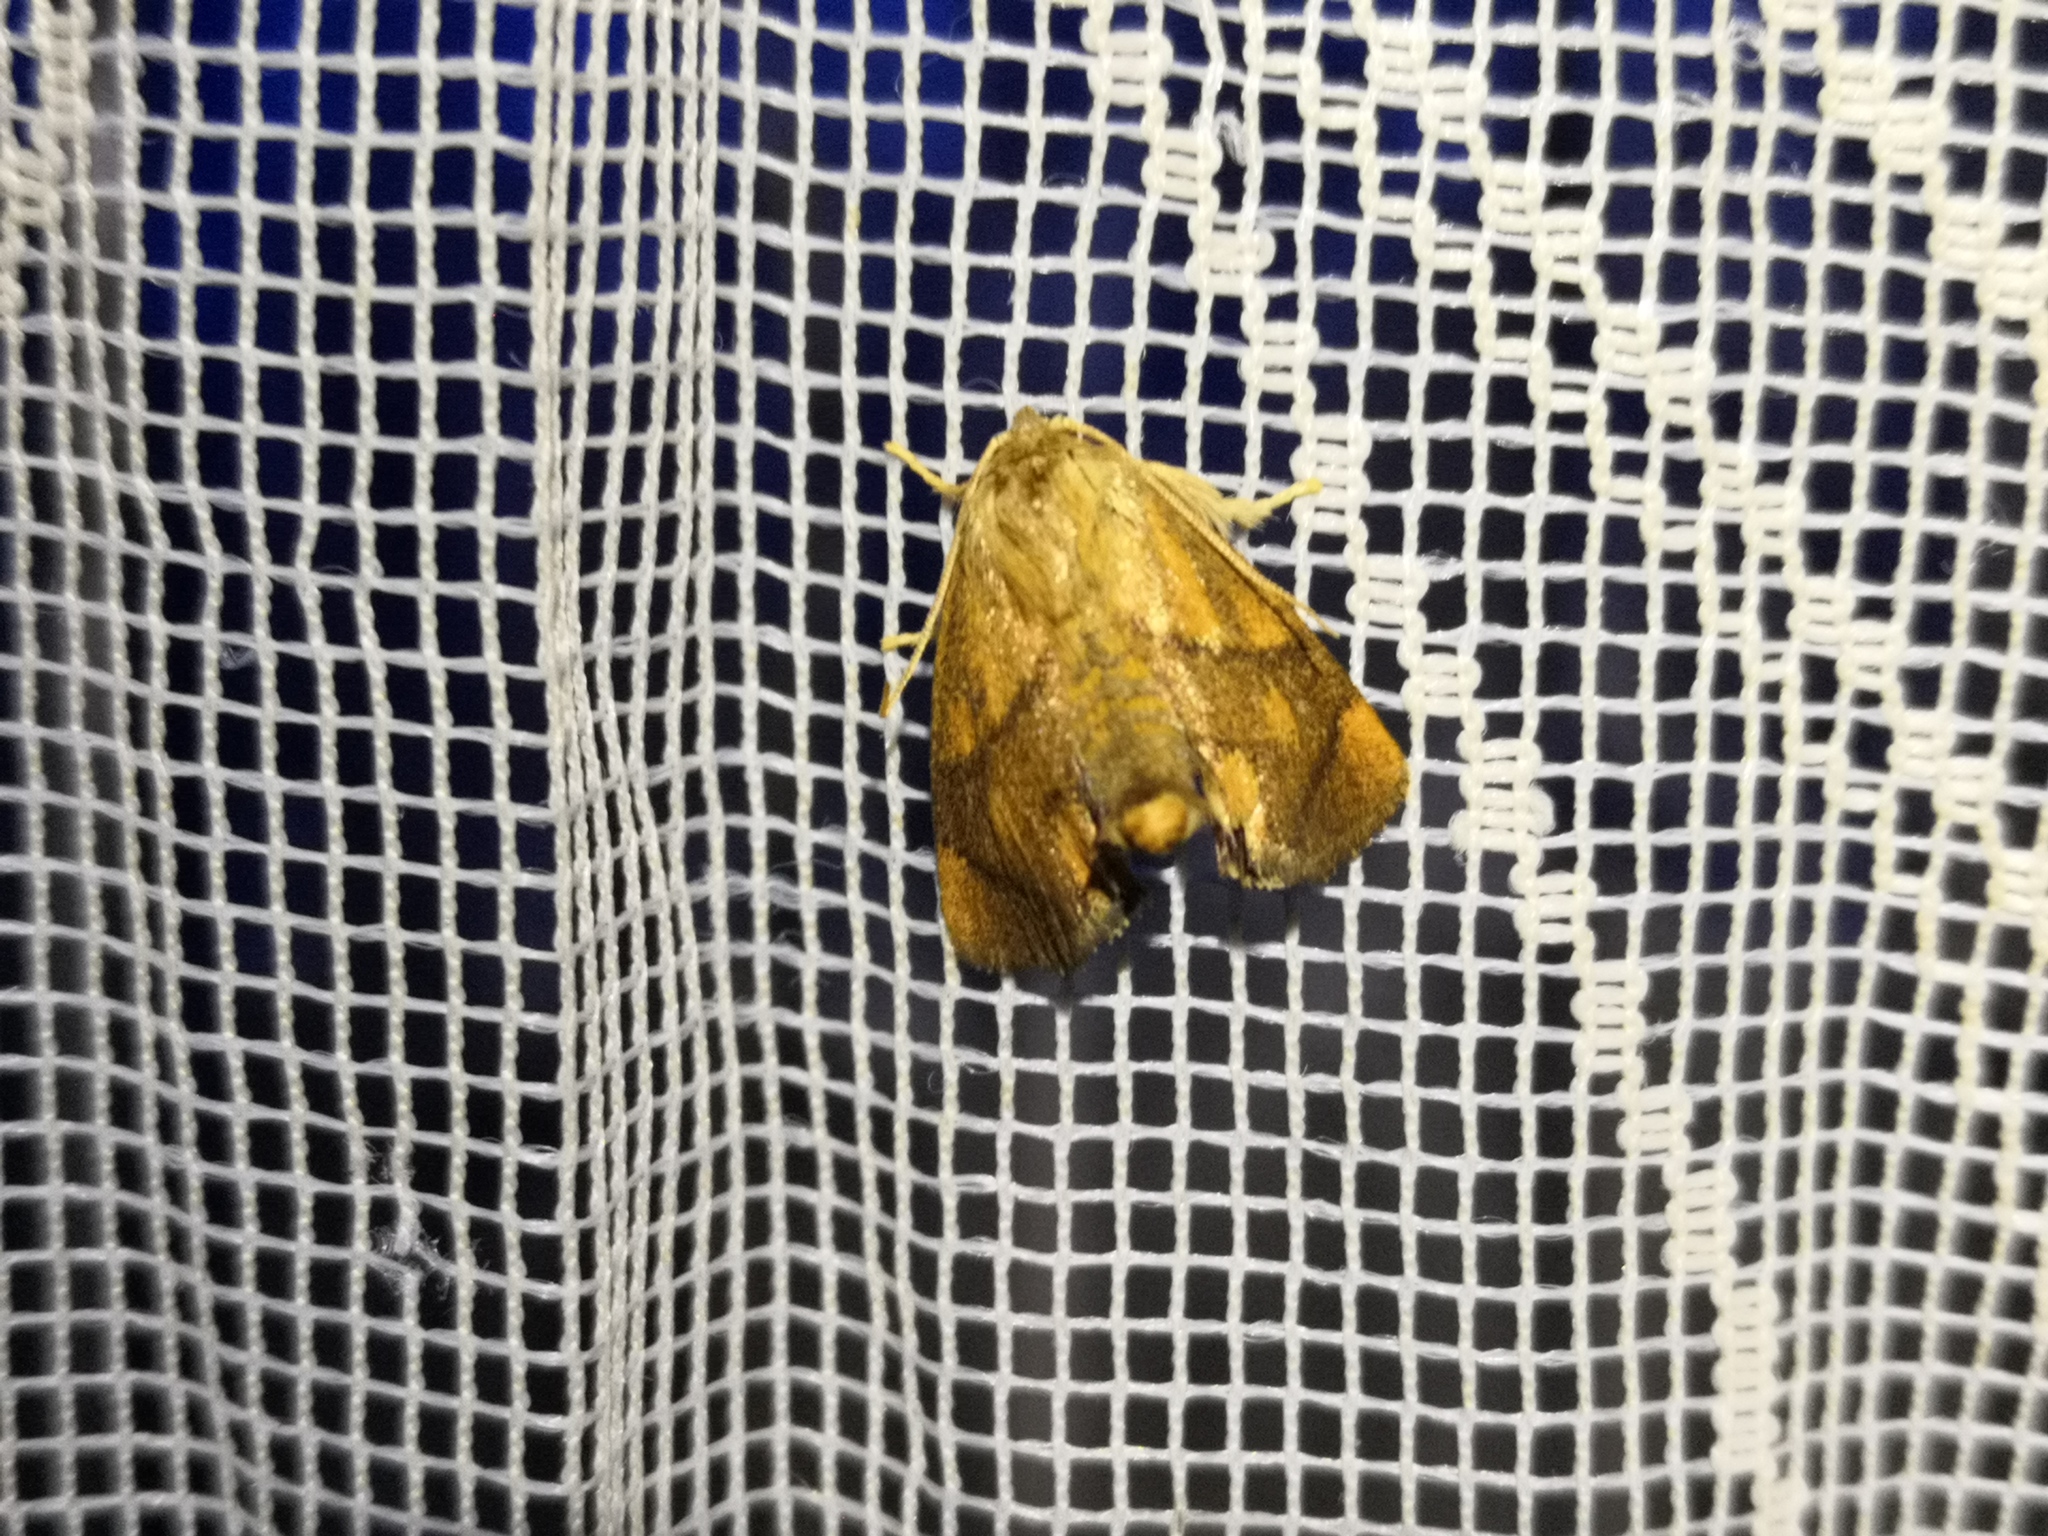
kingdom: Animalia
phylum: Arthropoda
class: Insecta
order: Lepidoptera
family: Limacodidae
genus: Apoda
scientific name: Apoda limacodes
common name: Festoon
